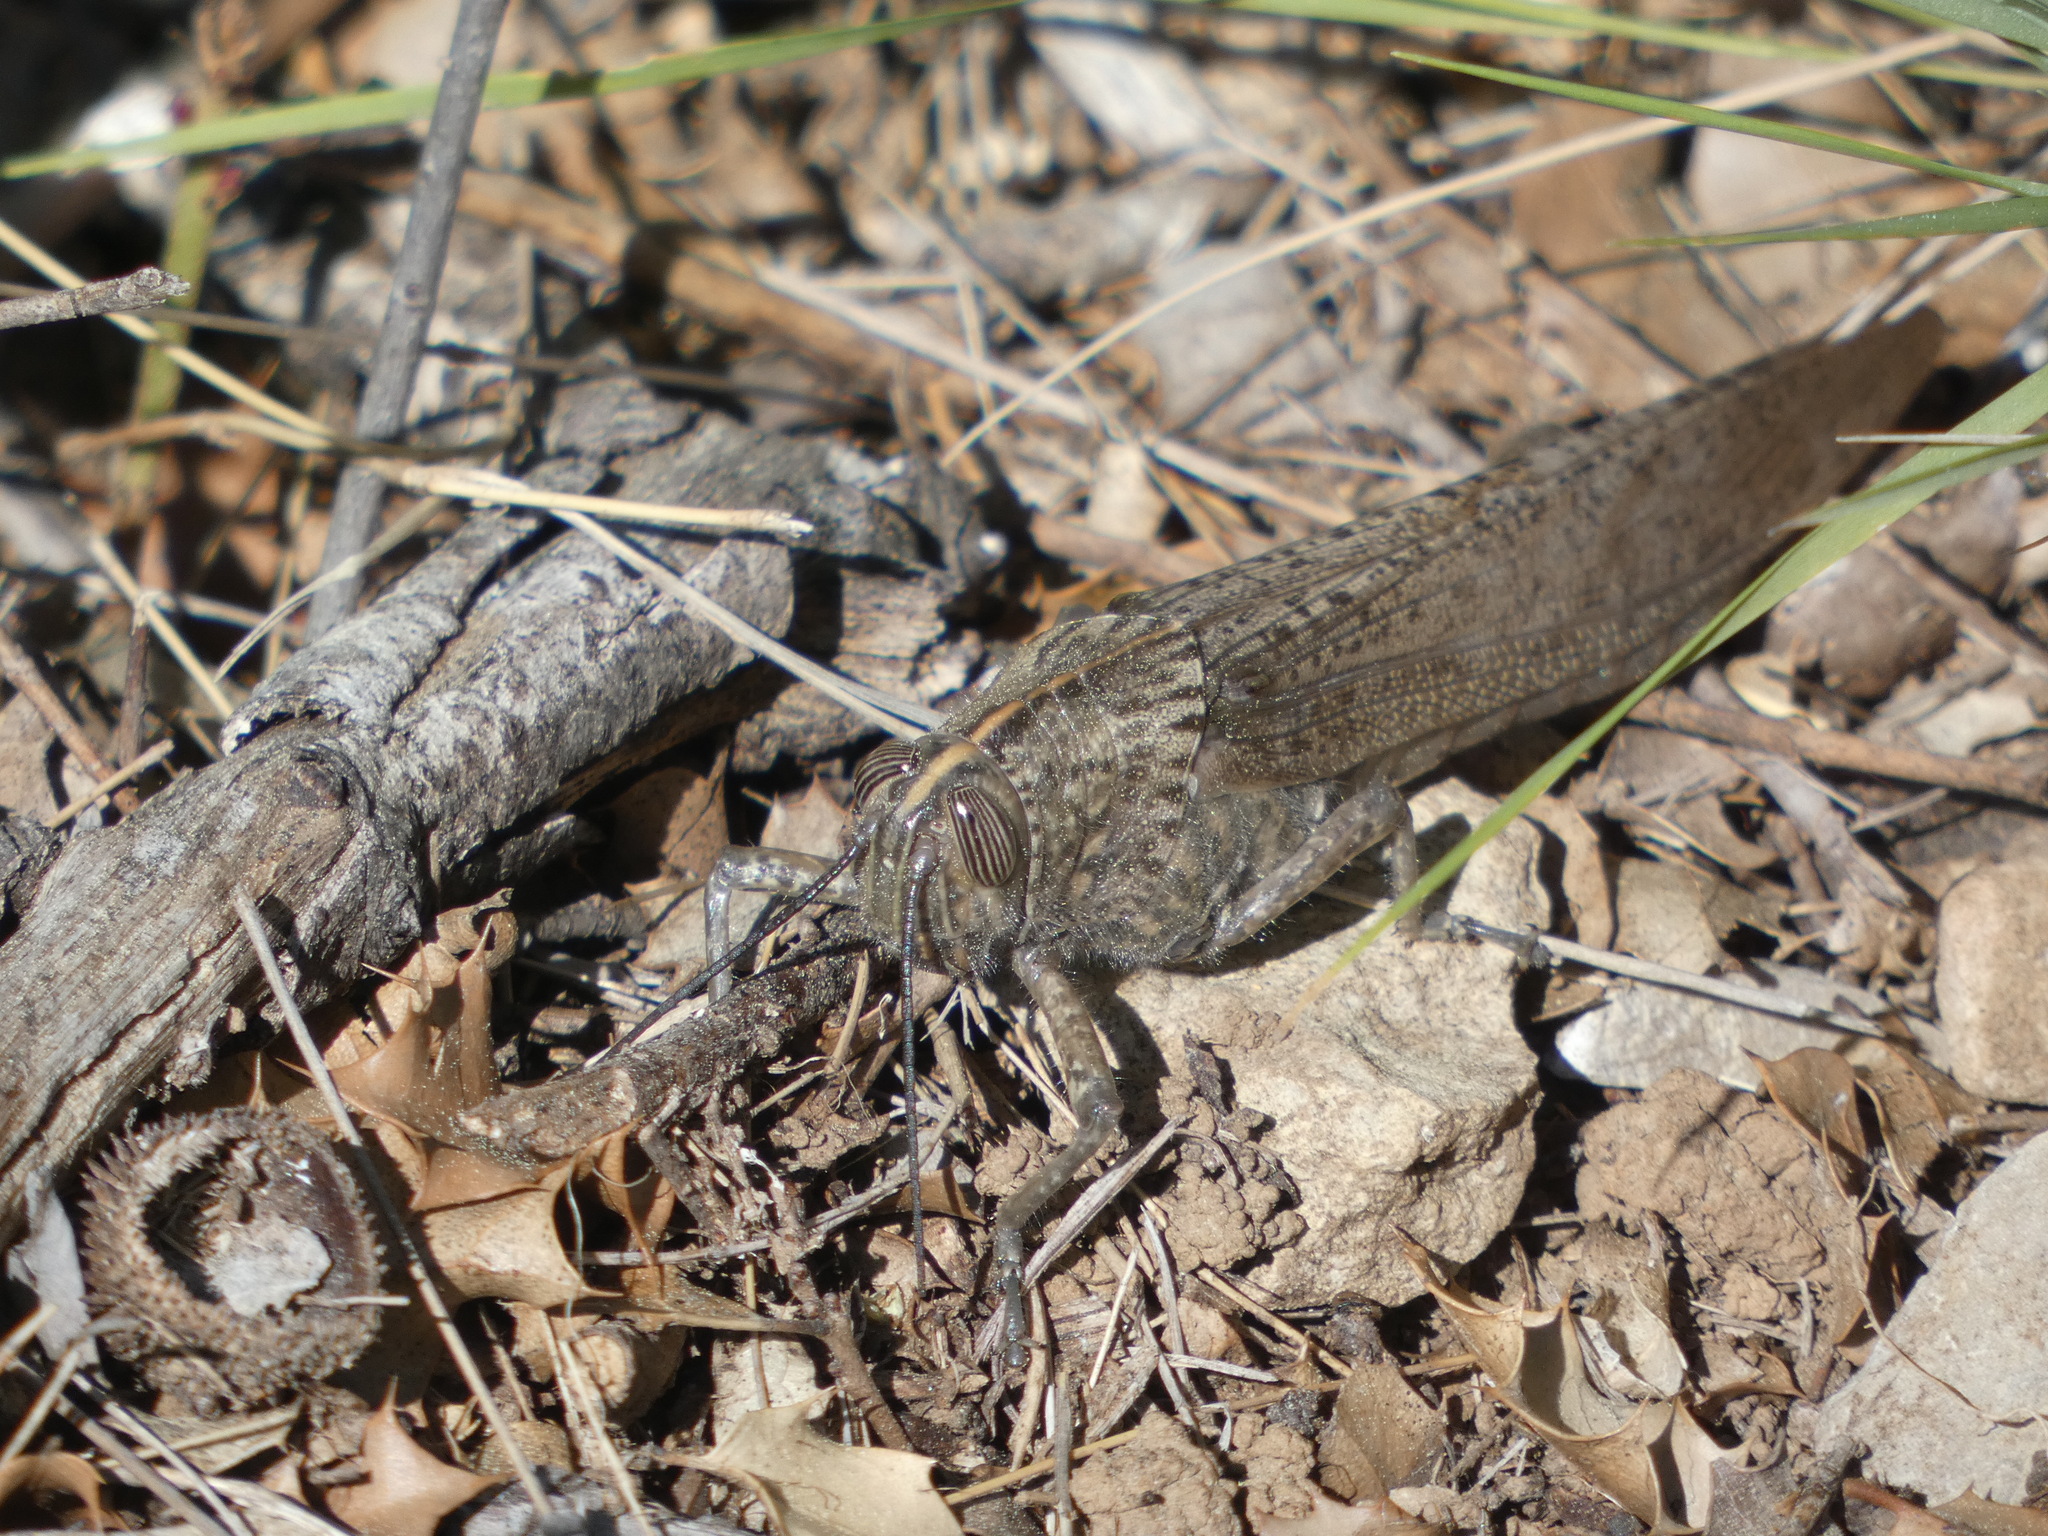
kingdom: Animalia
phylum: Arthropoda
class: Insecta
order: Orthoptera
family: Acrididae
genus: Anacridium
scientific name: Anacridium aegyptium
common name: Egyptian grasshopper
